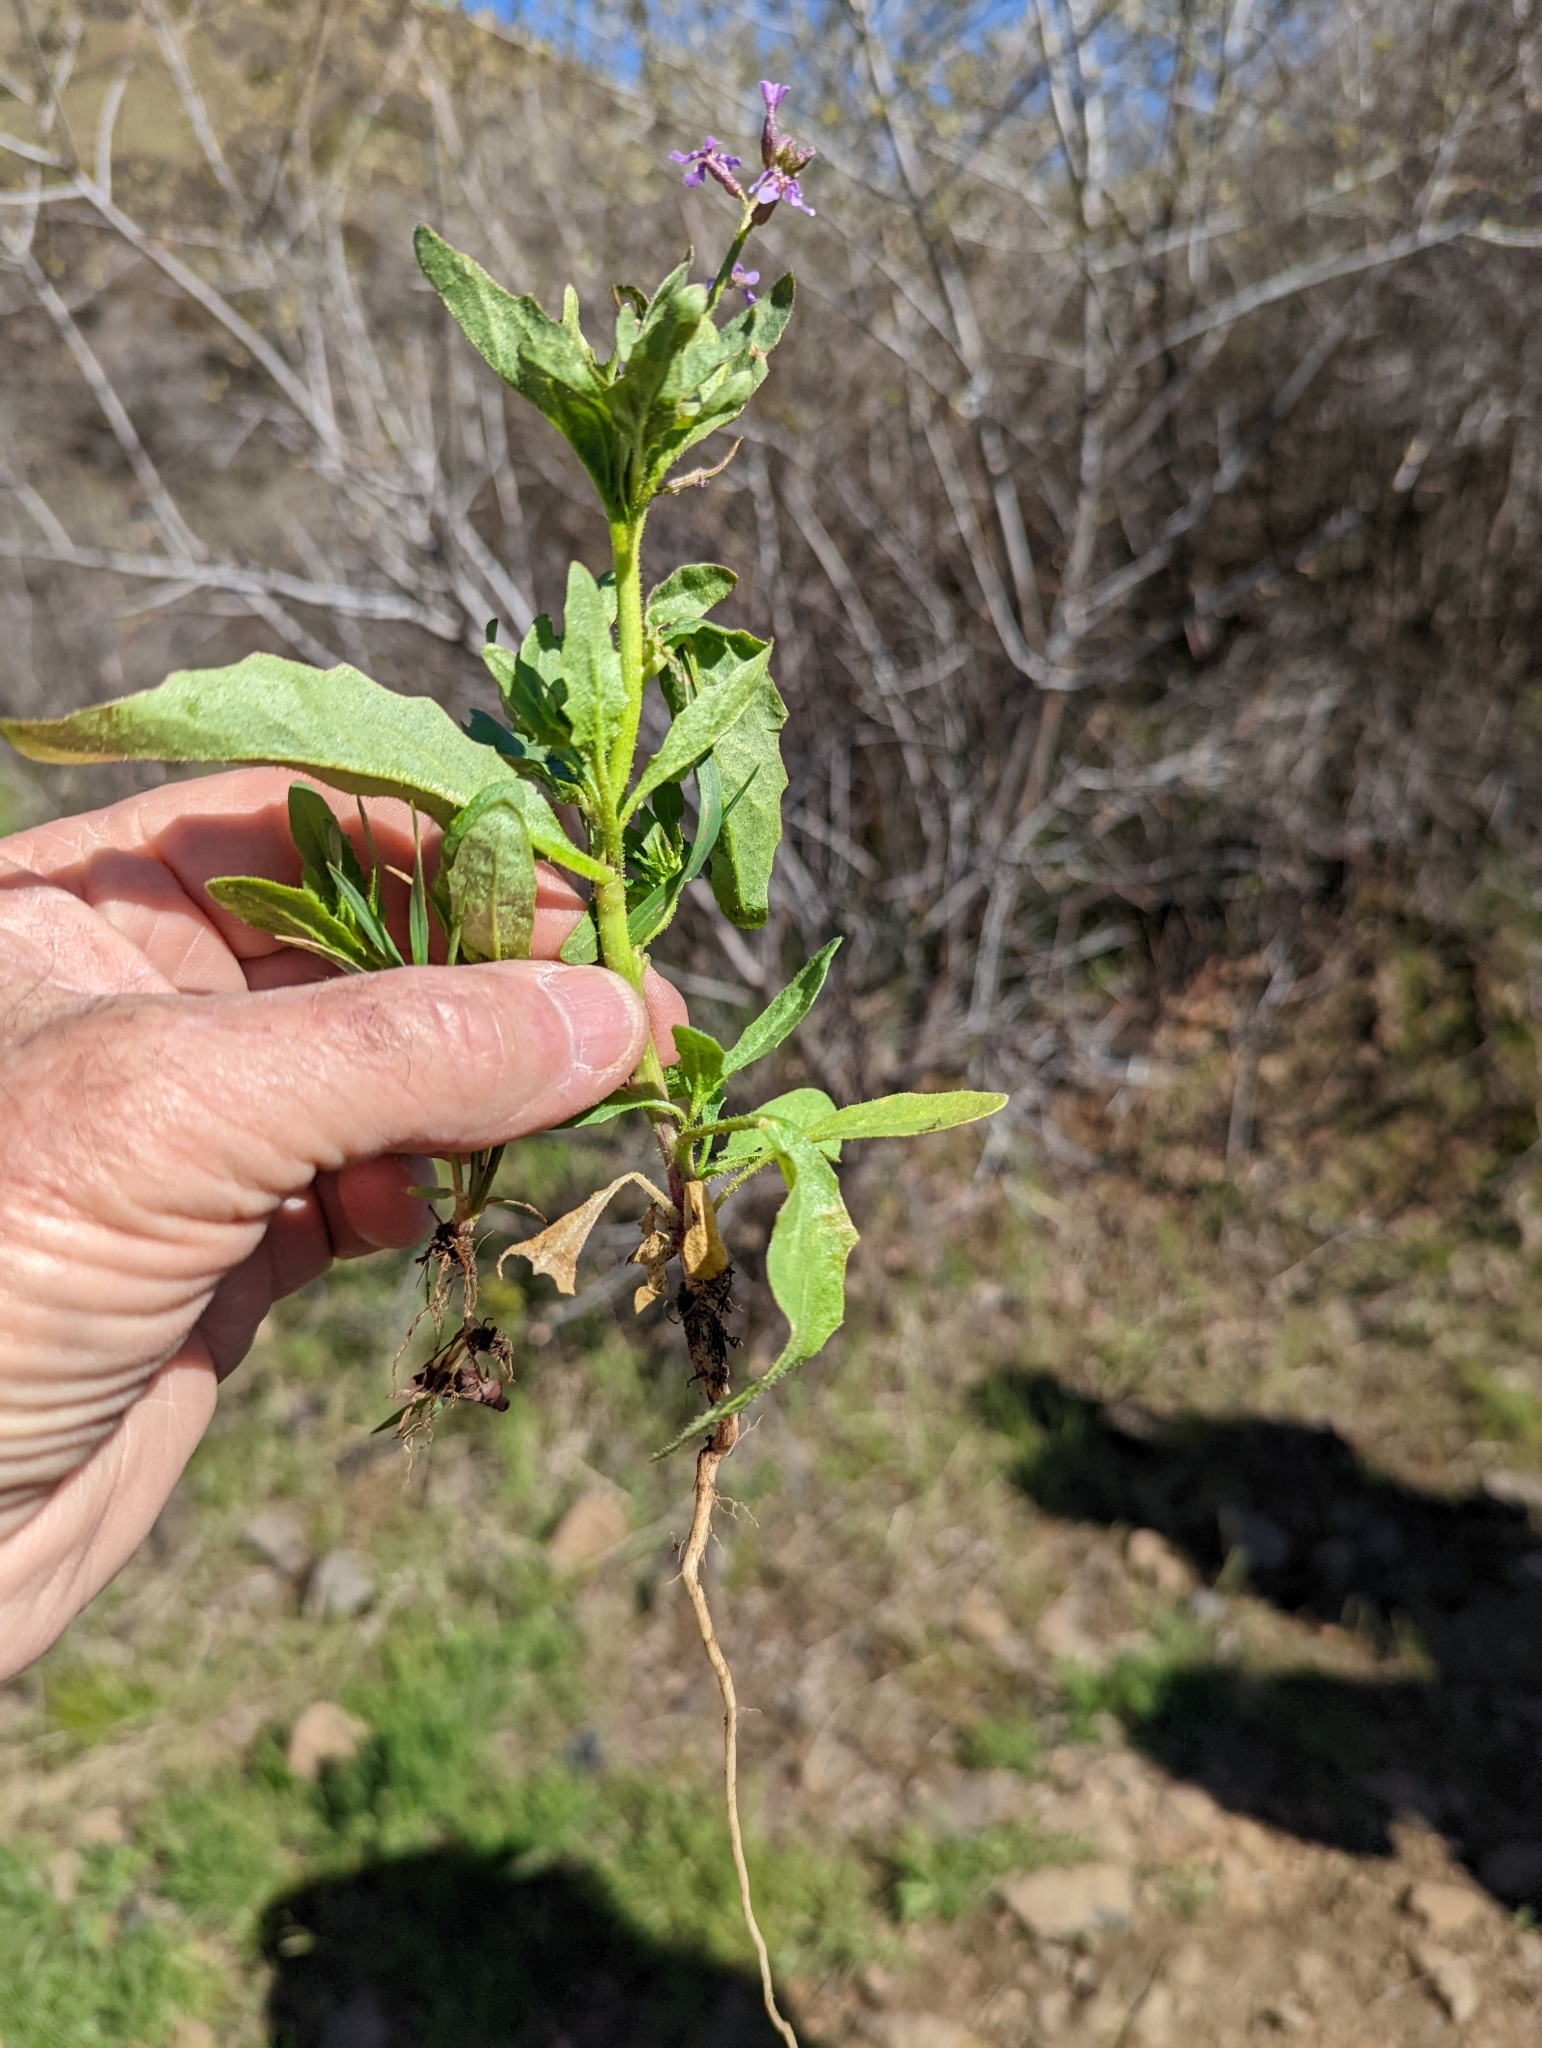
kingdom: Plantae
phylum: Tracheophyta
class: Magnoliopsida
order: Brassicales
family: Brassicaceae
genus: Chorispora
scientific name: Chorispora tenella
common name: Crossflower
